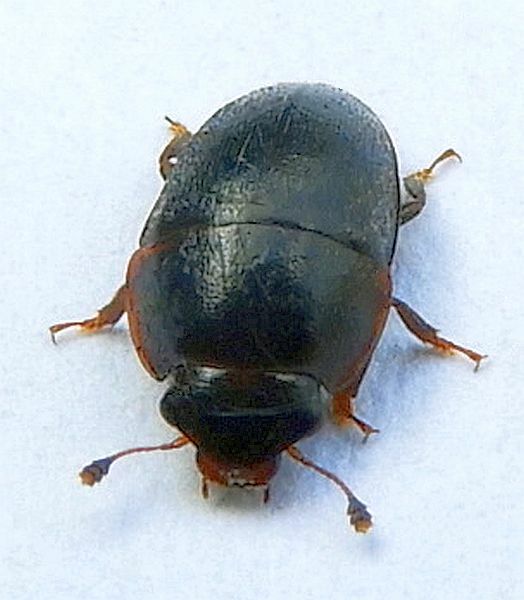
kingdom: Animalia
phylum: Arthropoda
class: Insecta
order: Coleoptera
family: Nitidulidae
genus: Cryptarcha
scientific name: Cryptarcha ampla
